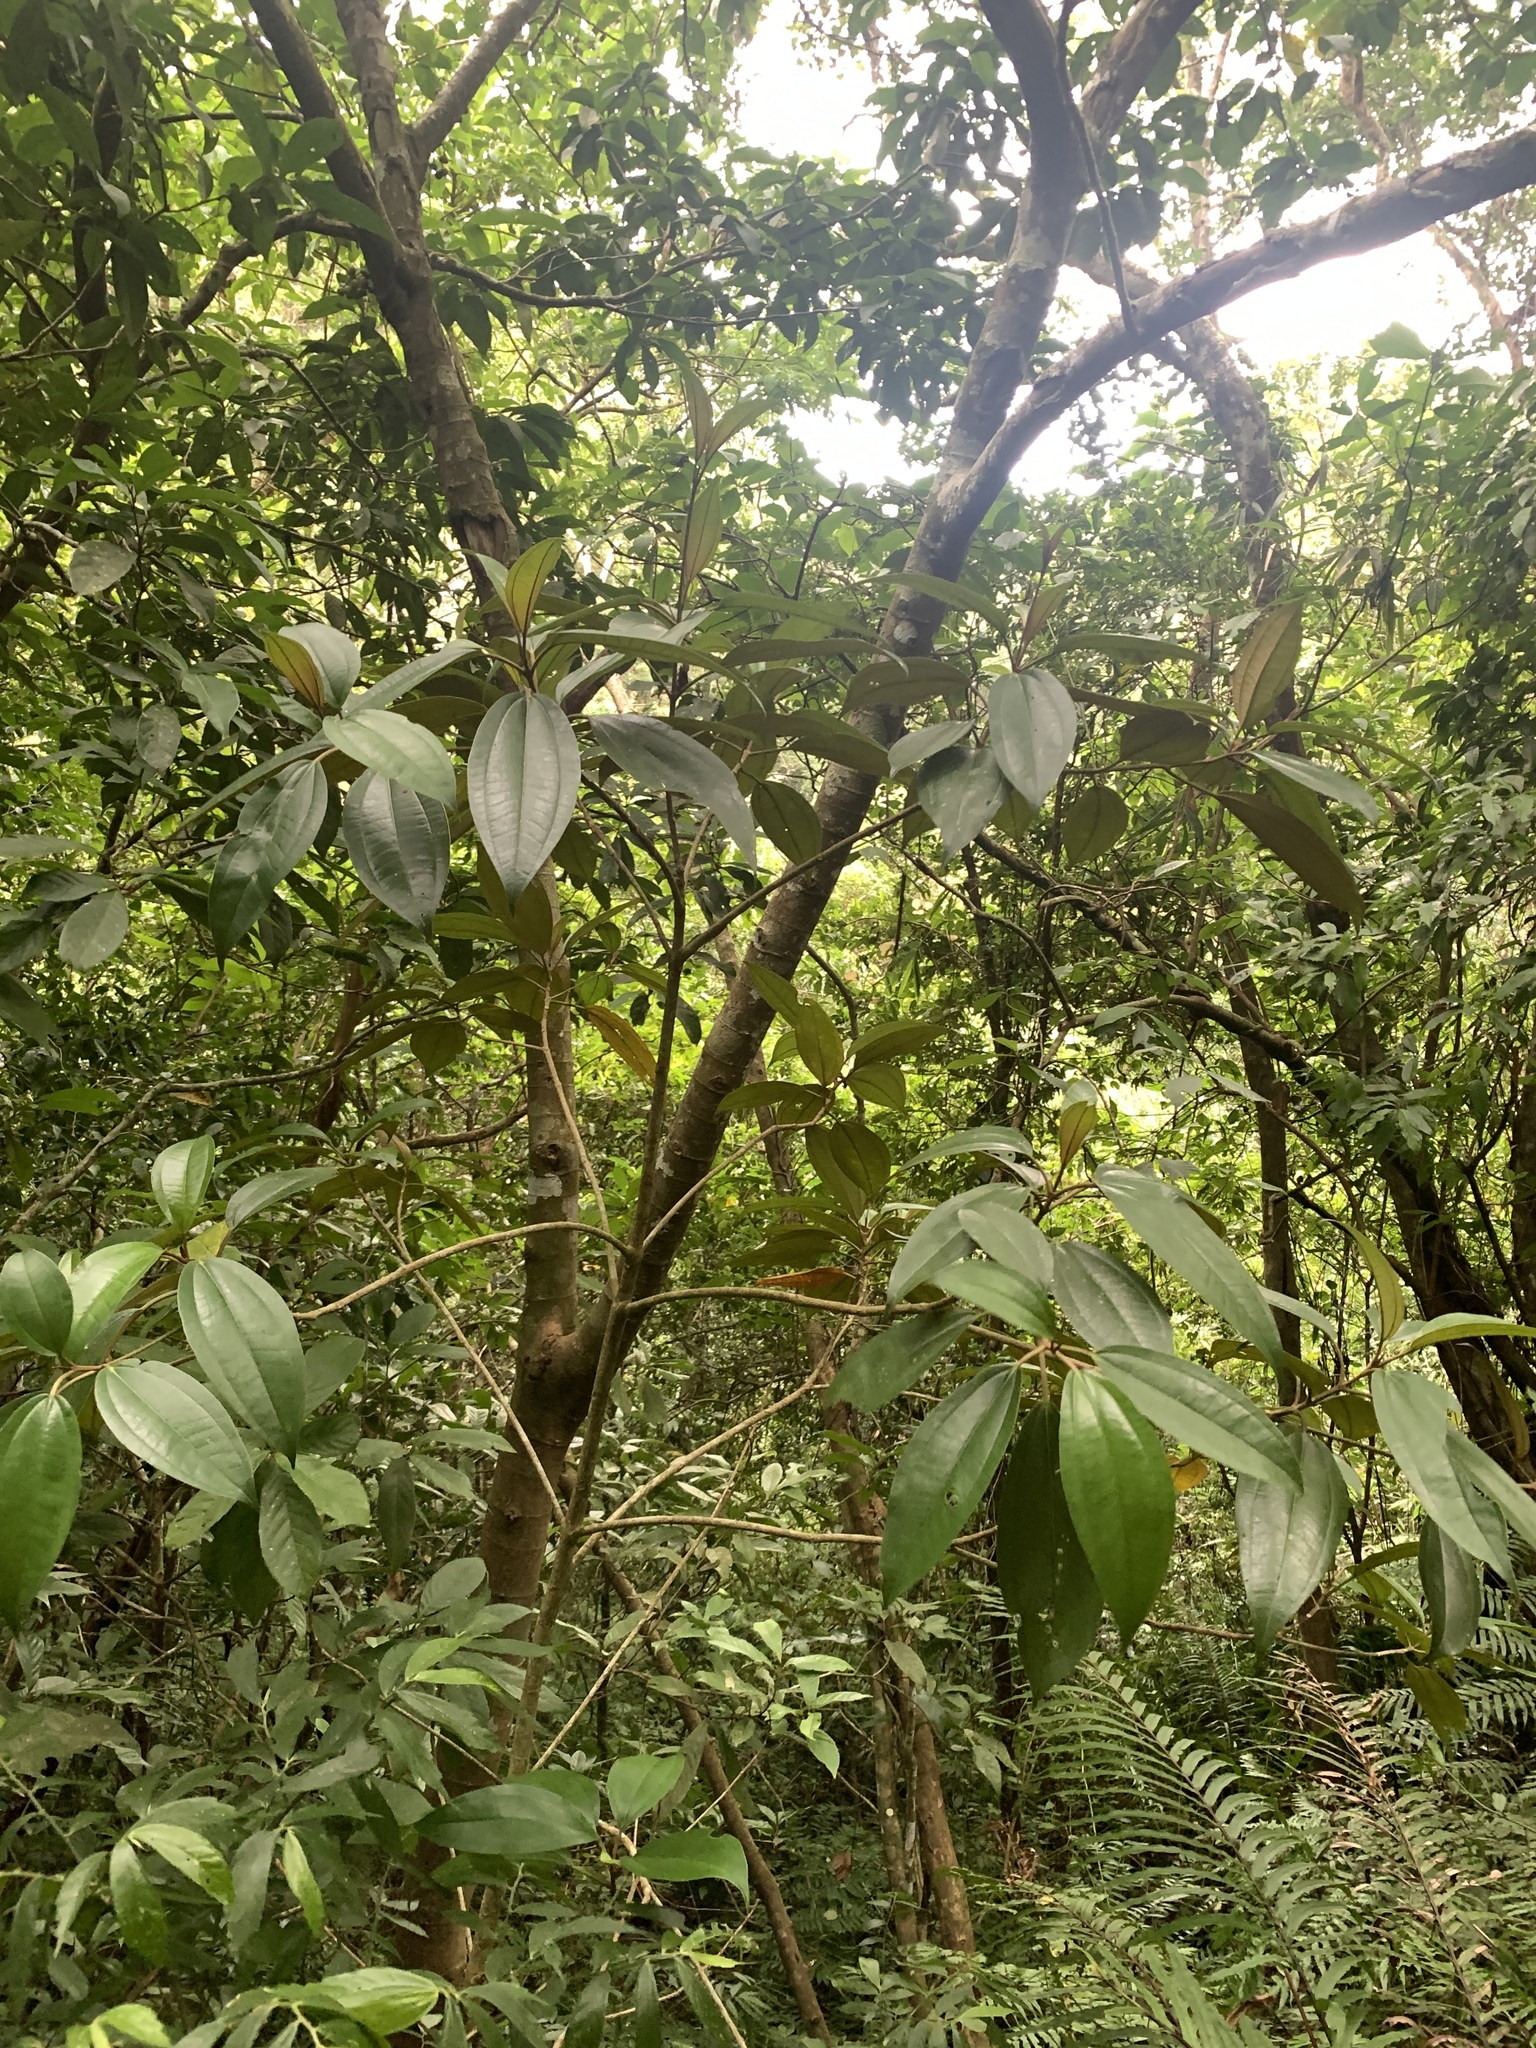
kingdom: Plantae
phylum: Tracheophyta
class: Magnoliopsida
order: Myrtales
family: Melastomataceae
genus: Astronia
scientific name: Astronia ferruginea
